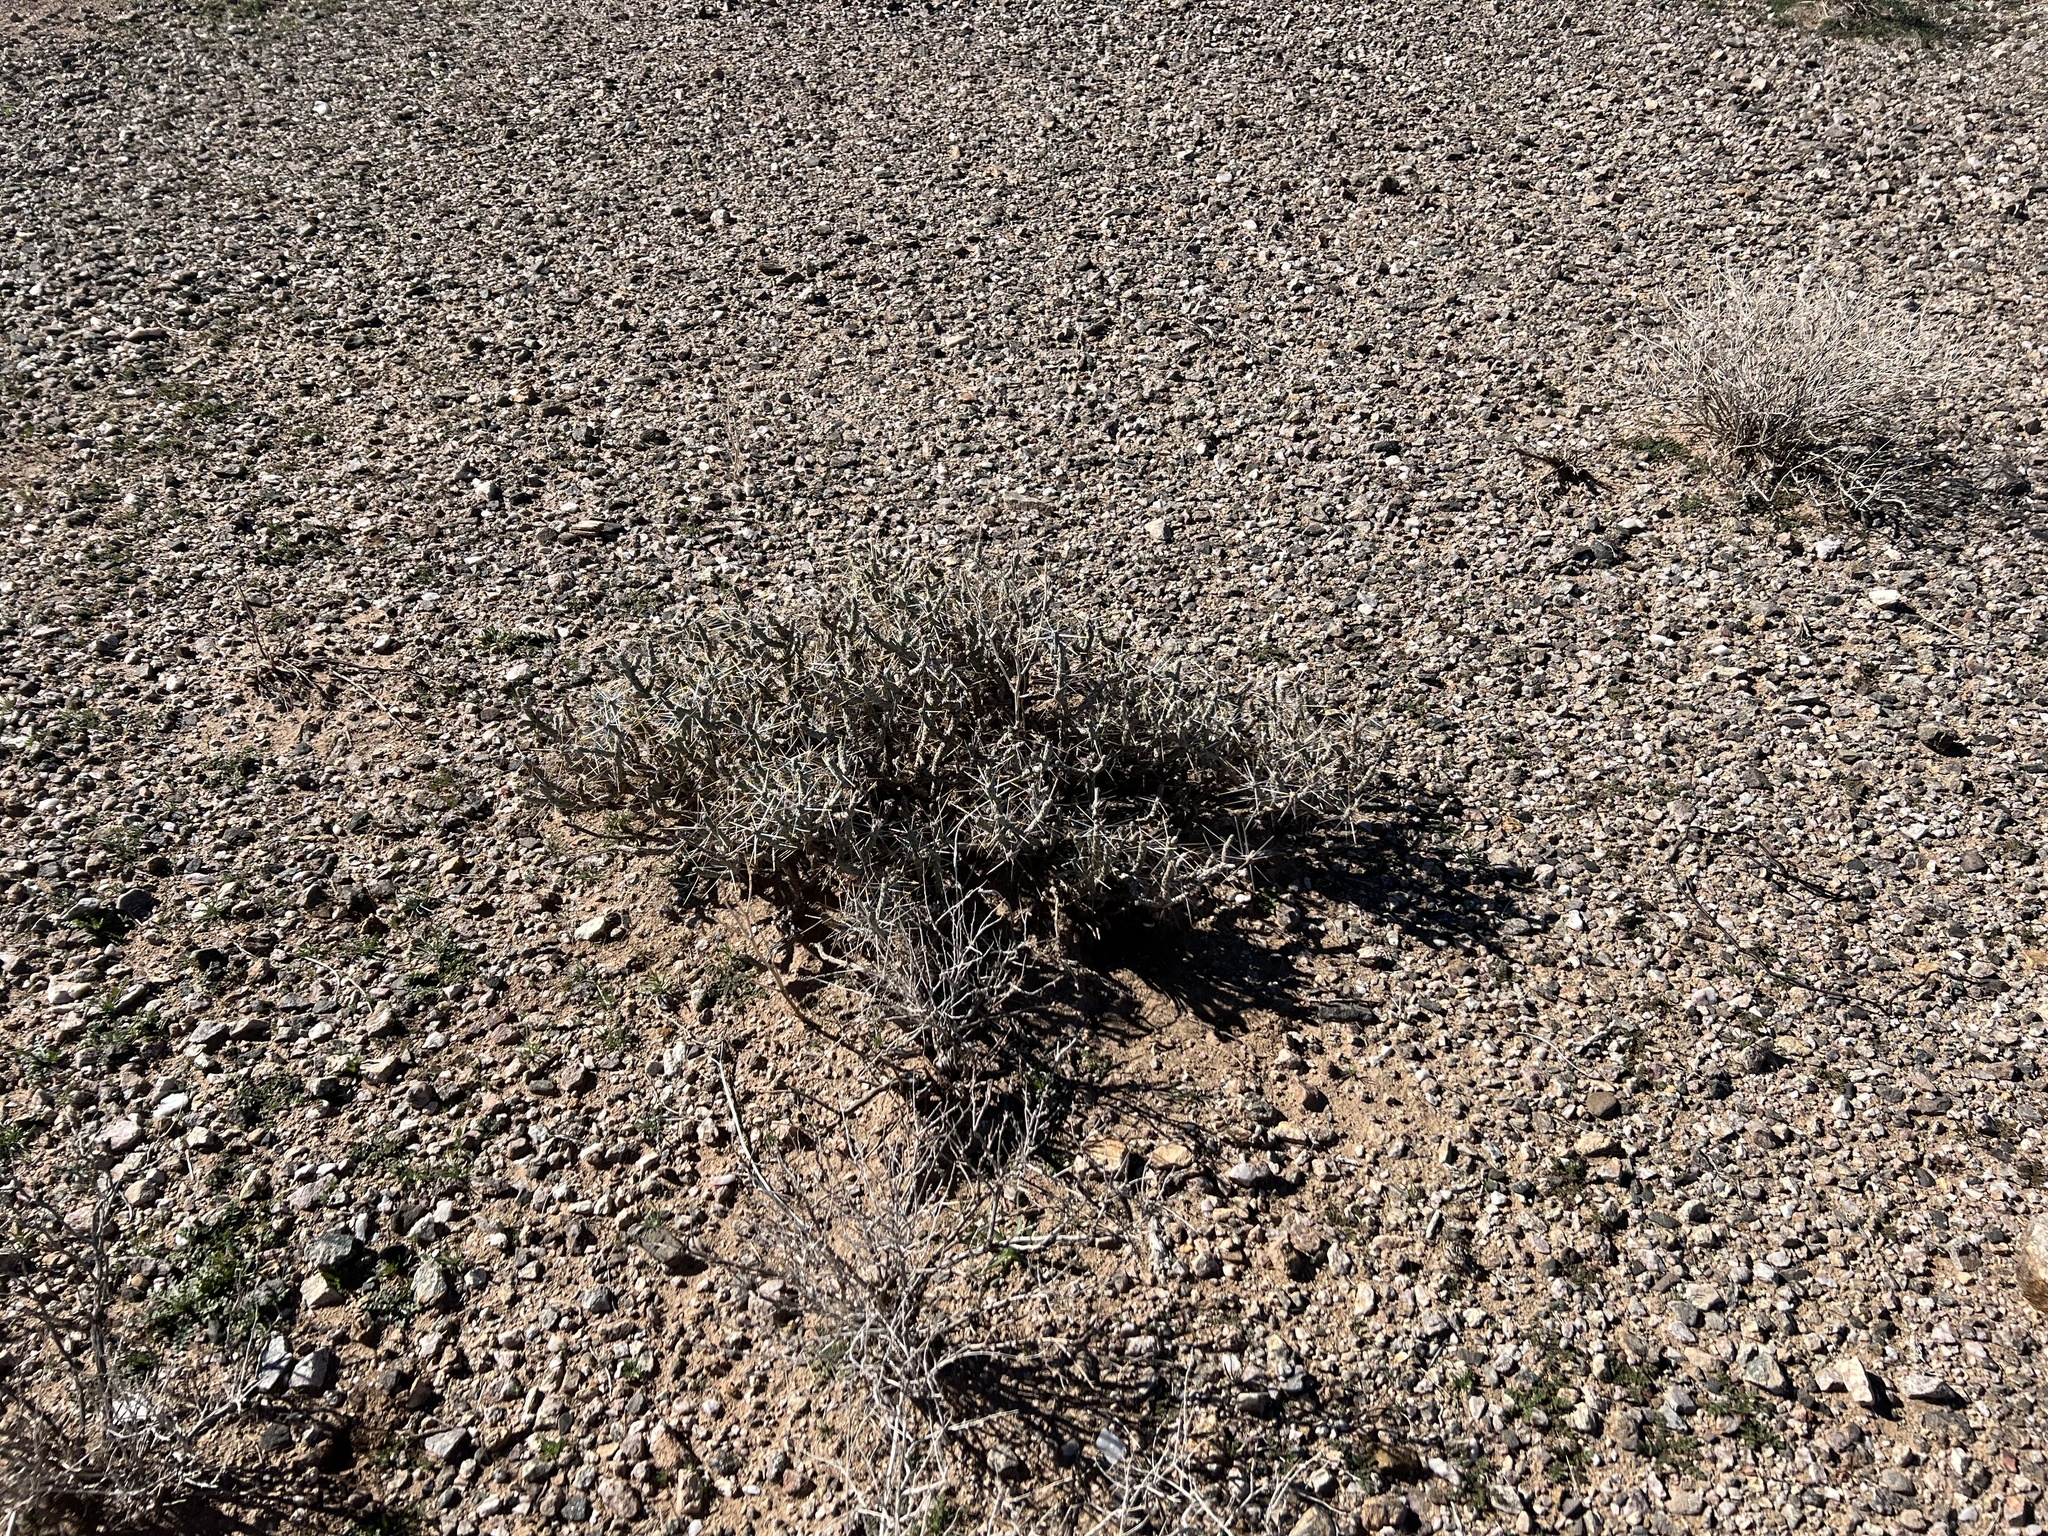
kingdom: Plantae
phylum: Tracheophyta
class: Magnoliopsida
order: Caryophyllales
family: Cactaceae
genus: Cylindropuntia
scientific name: Cylindropuntia ramosissima
